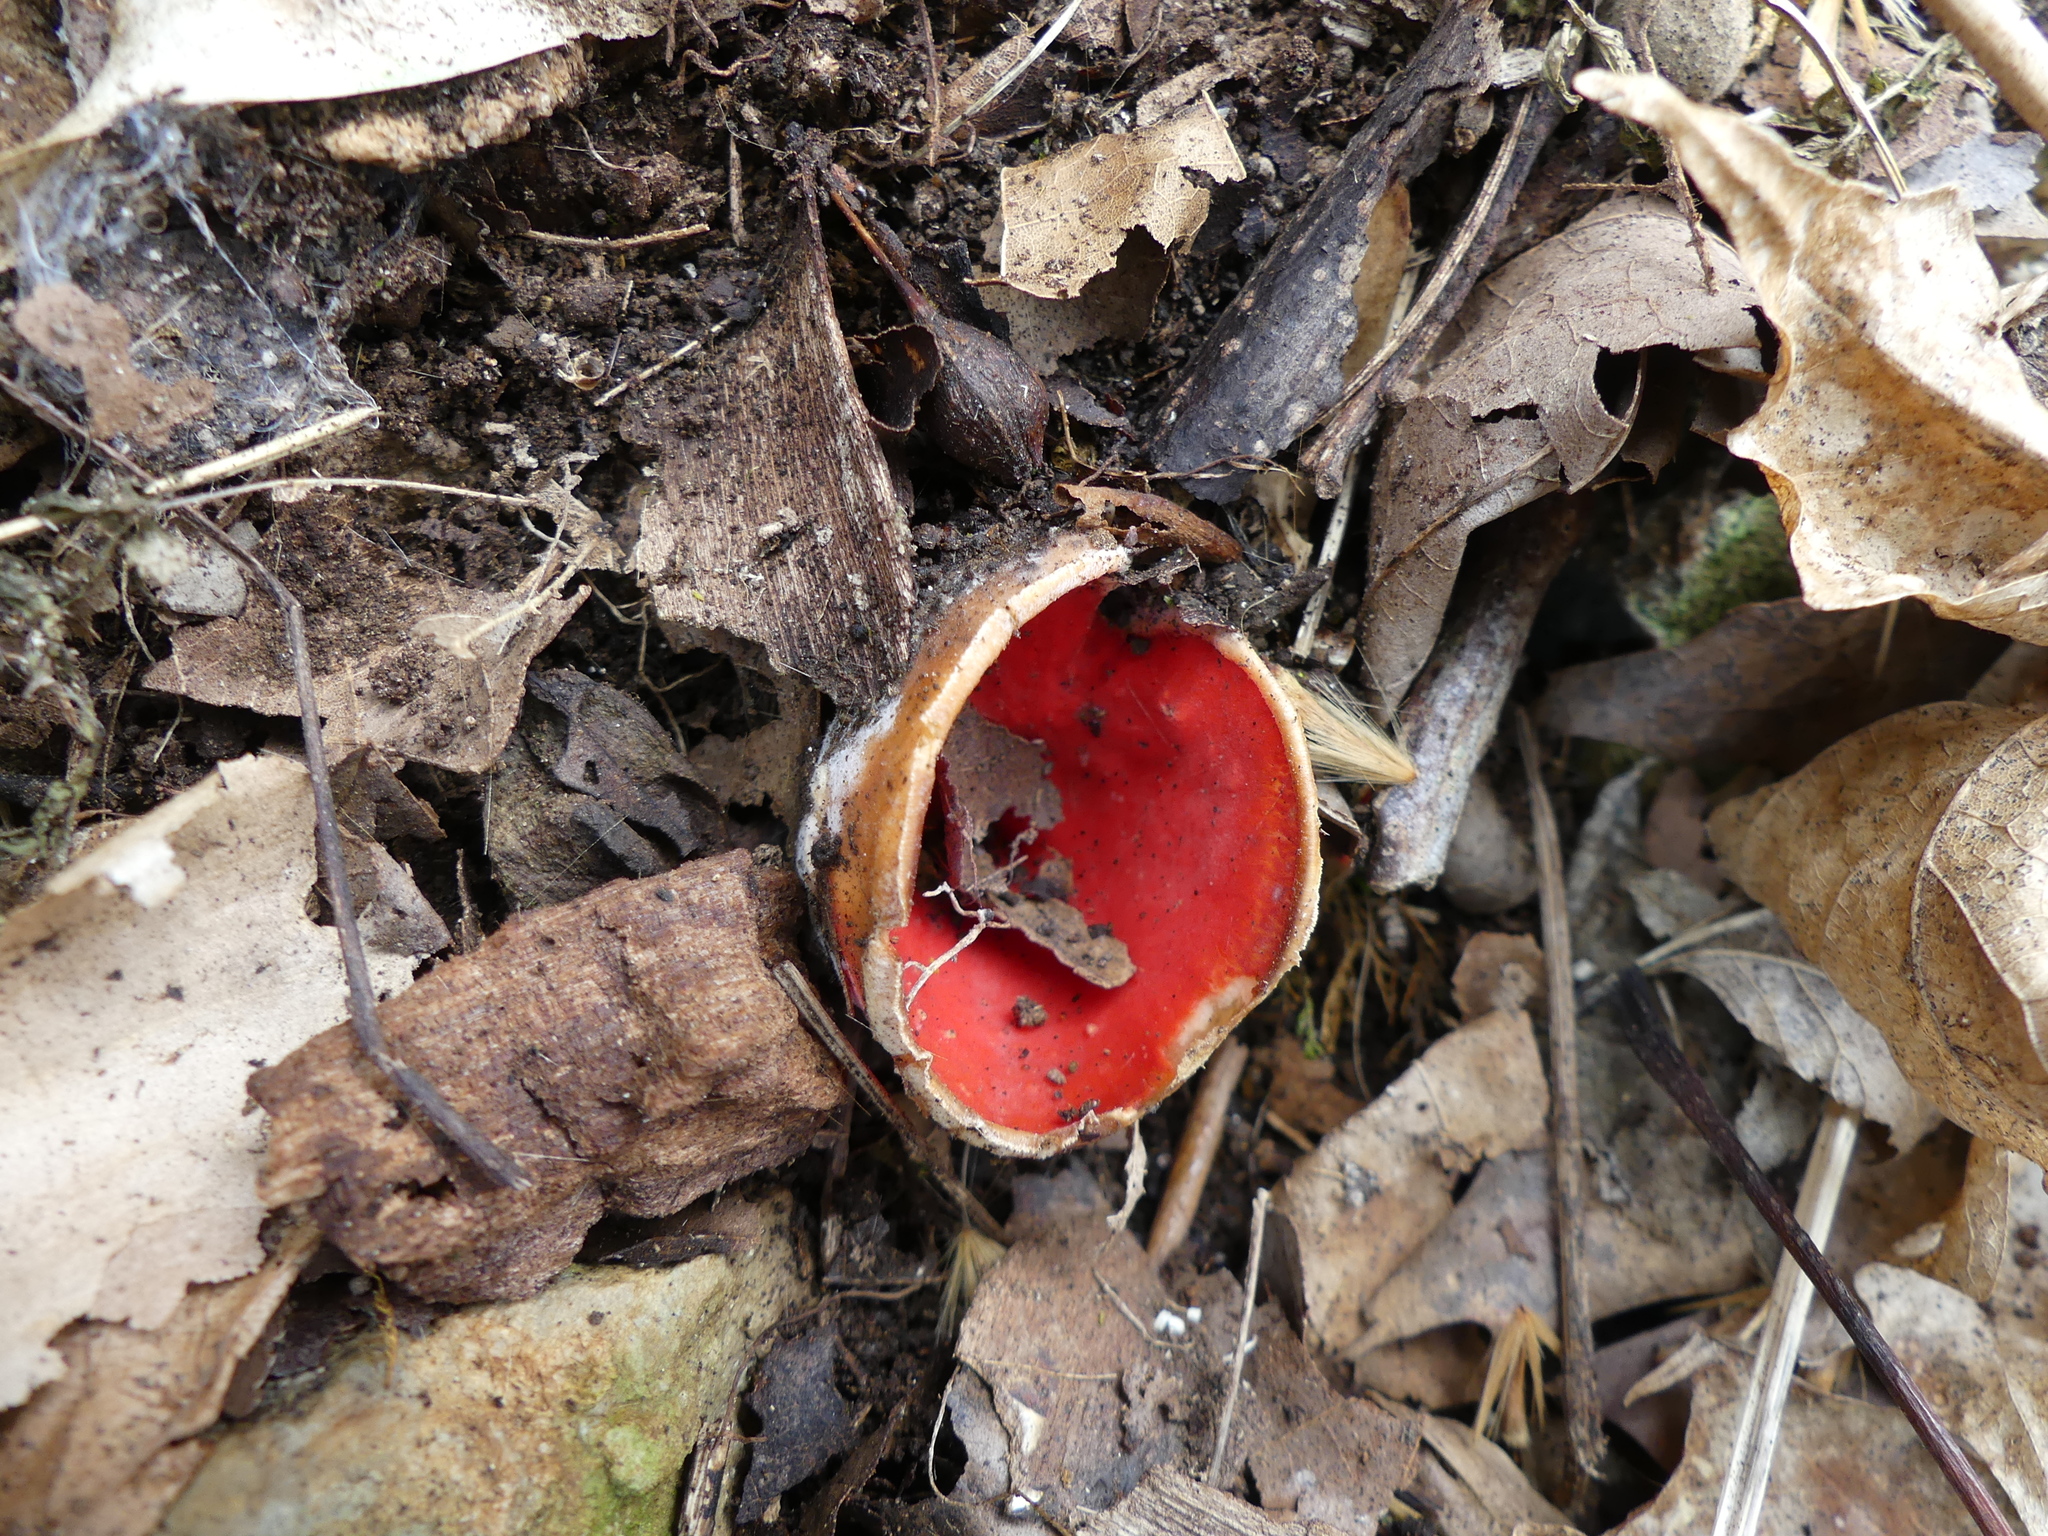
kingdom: Fungi
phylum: Ascomycota
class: Pezizomycetes
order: Pezizales
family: Sarcoscyphaceae
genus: Sarcoscypha
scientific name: Sarcoscypha austriaca
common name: Scarlet elfcup
